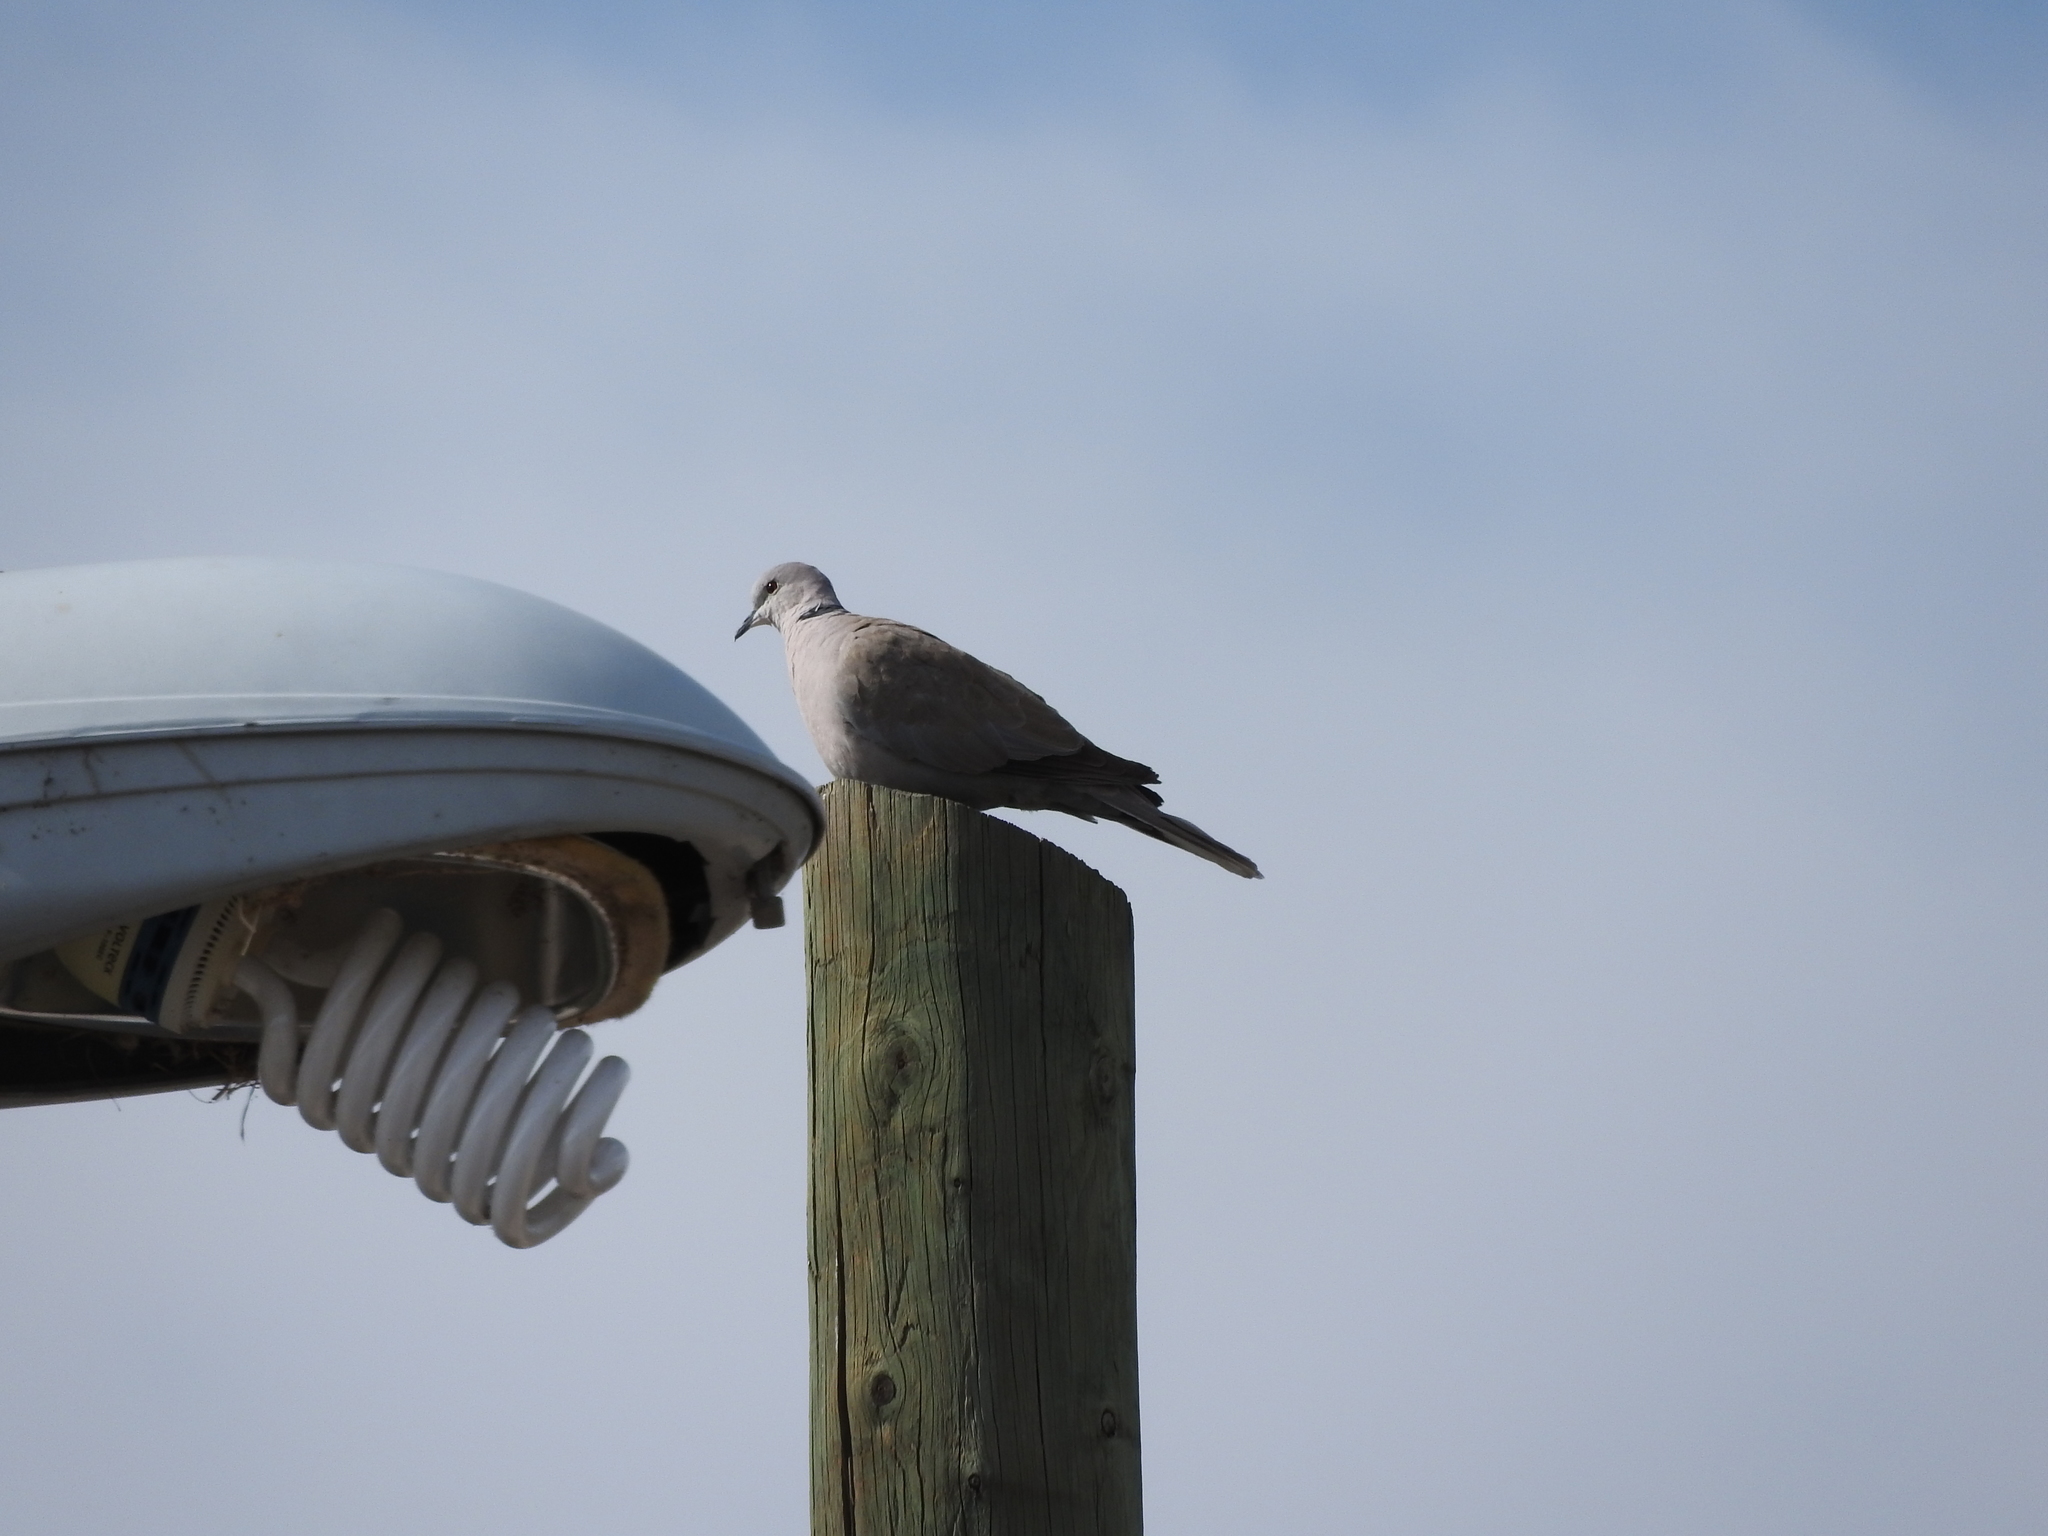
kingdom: Animalia
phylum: Chordata
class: Aves
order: Columbiformes
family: Columbidae
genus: Streptopelia
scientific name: Streptopelia decaocto
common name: Eurasian collared dove
